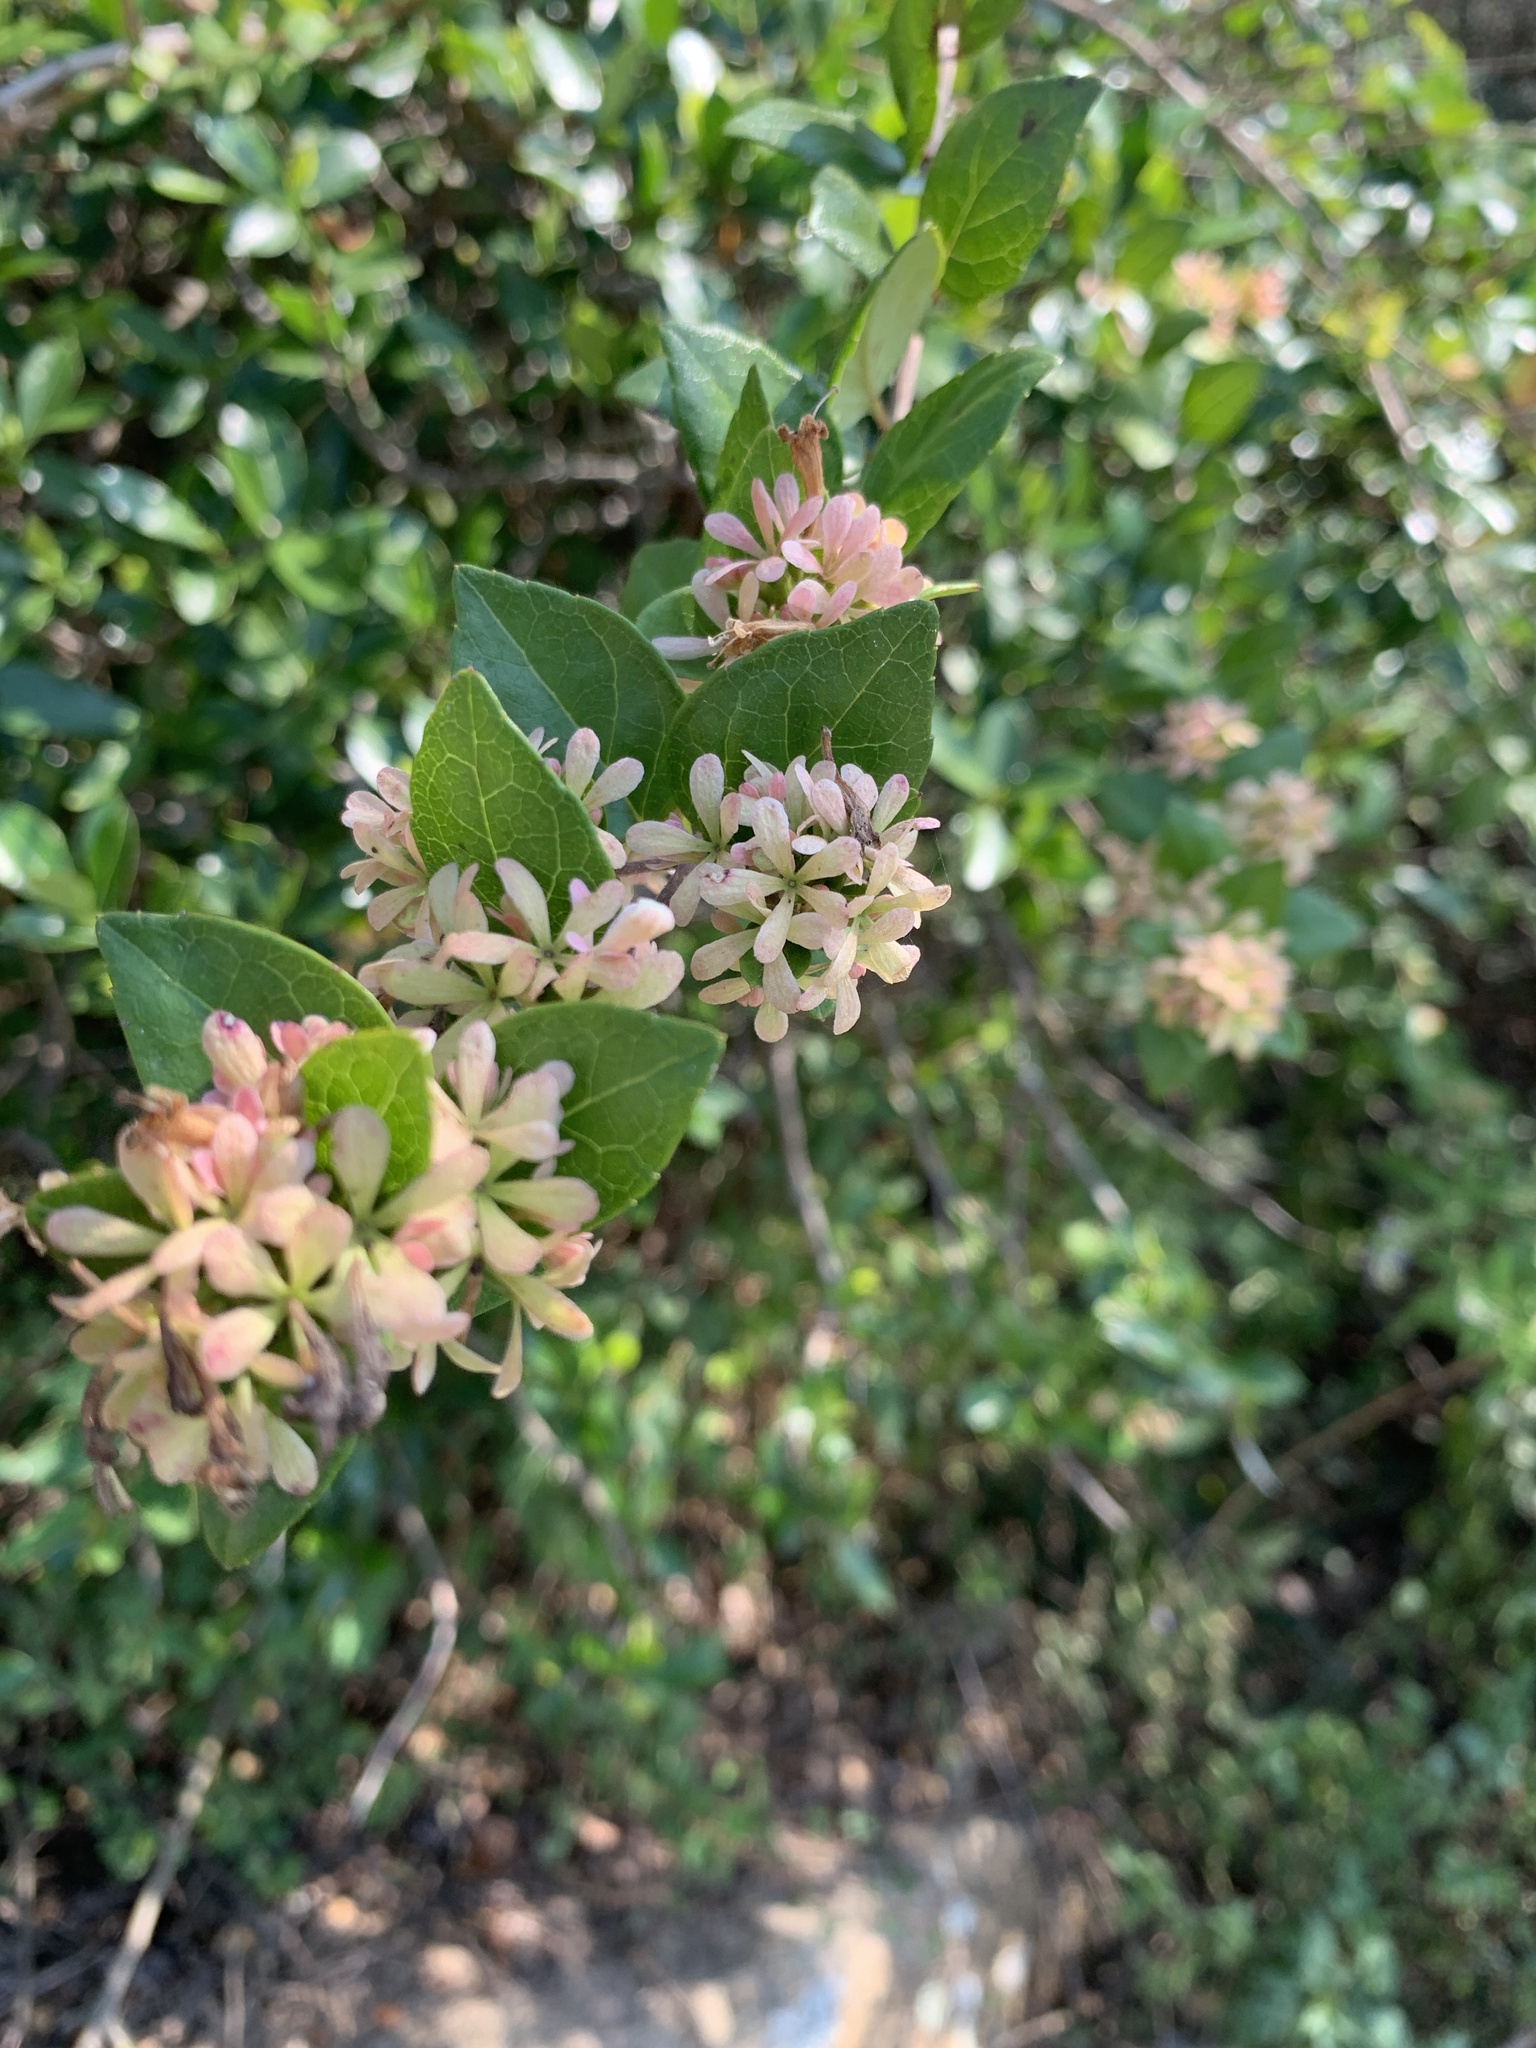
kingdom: Plantae
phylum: Tracheophyta
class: Magnoliopsida
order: Dipsacales
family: Caprifoliaceae
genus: Abelia
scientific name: Abelia chinensis
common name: Chinese abelia
